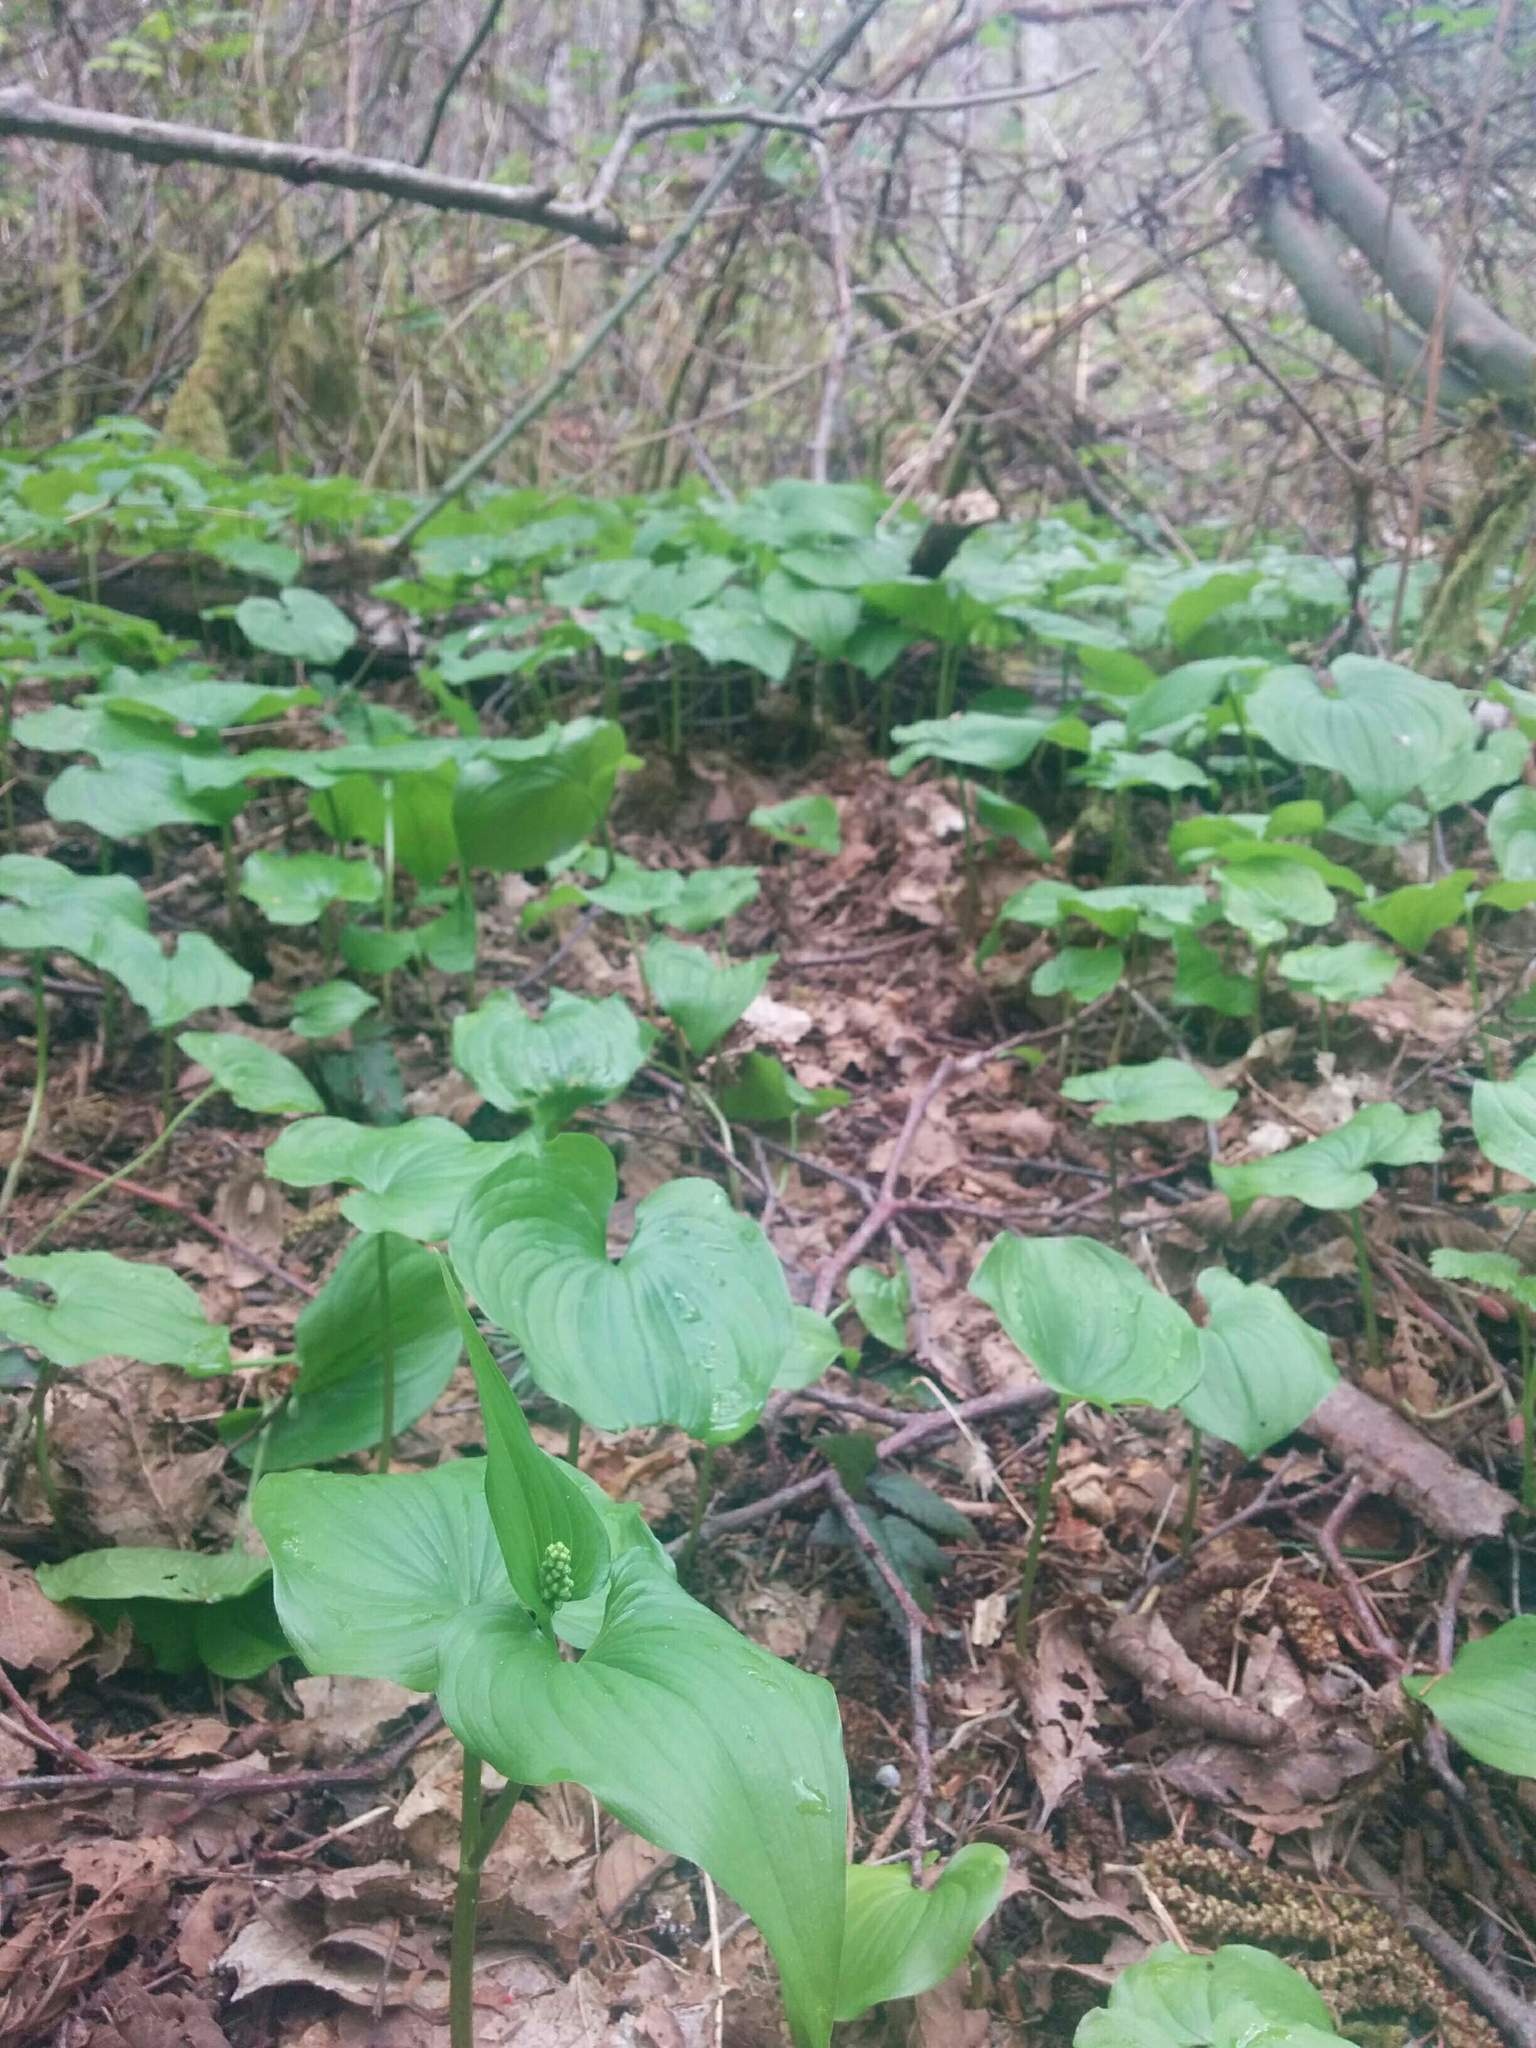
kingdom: Plantae
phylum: Tracheophyta
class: Liliopsida
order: Asparagales
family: Asparagaceae
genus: Maianthemum
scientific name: Maianthemum dilatatum
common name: False lily-of-the-valley
